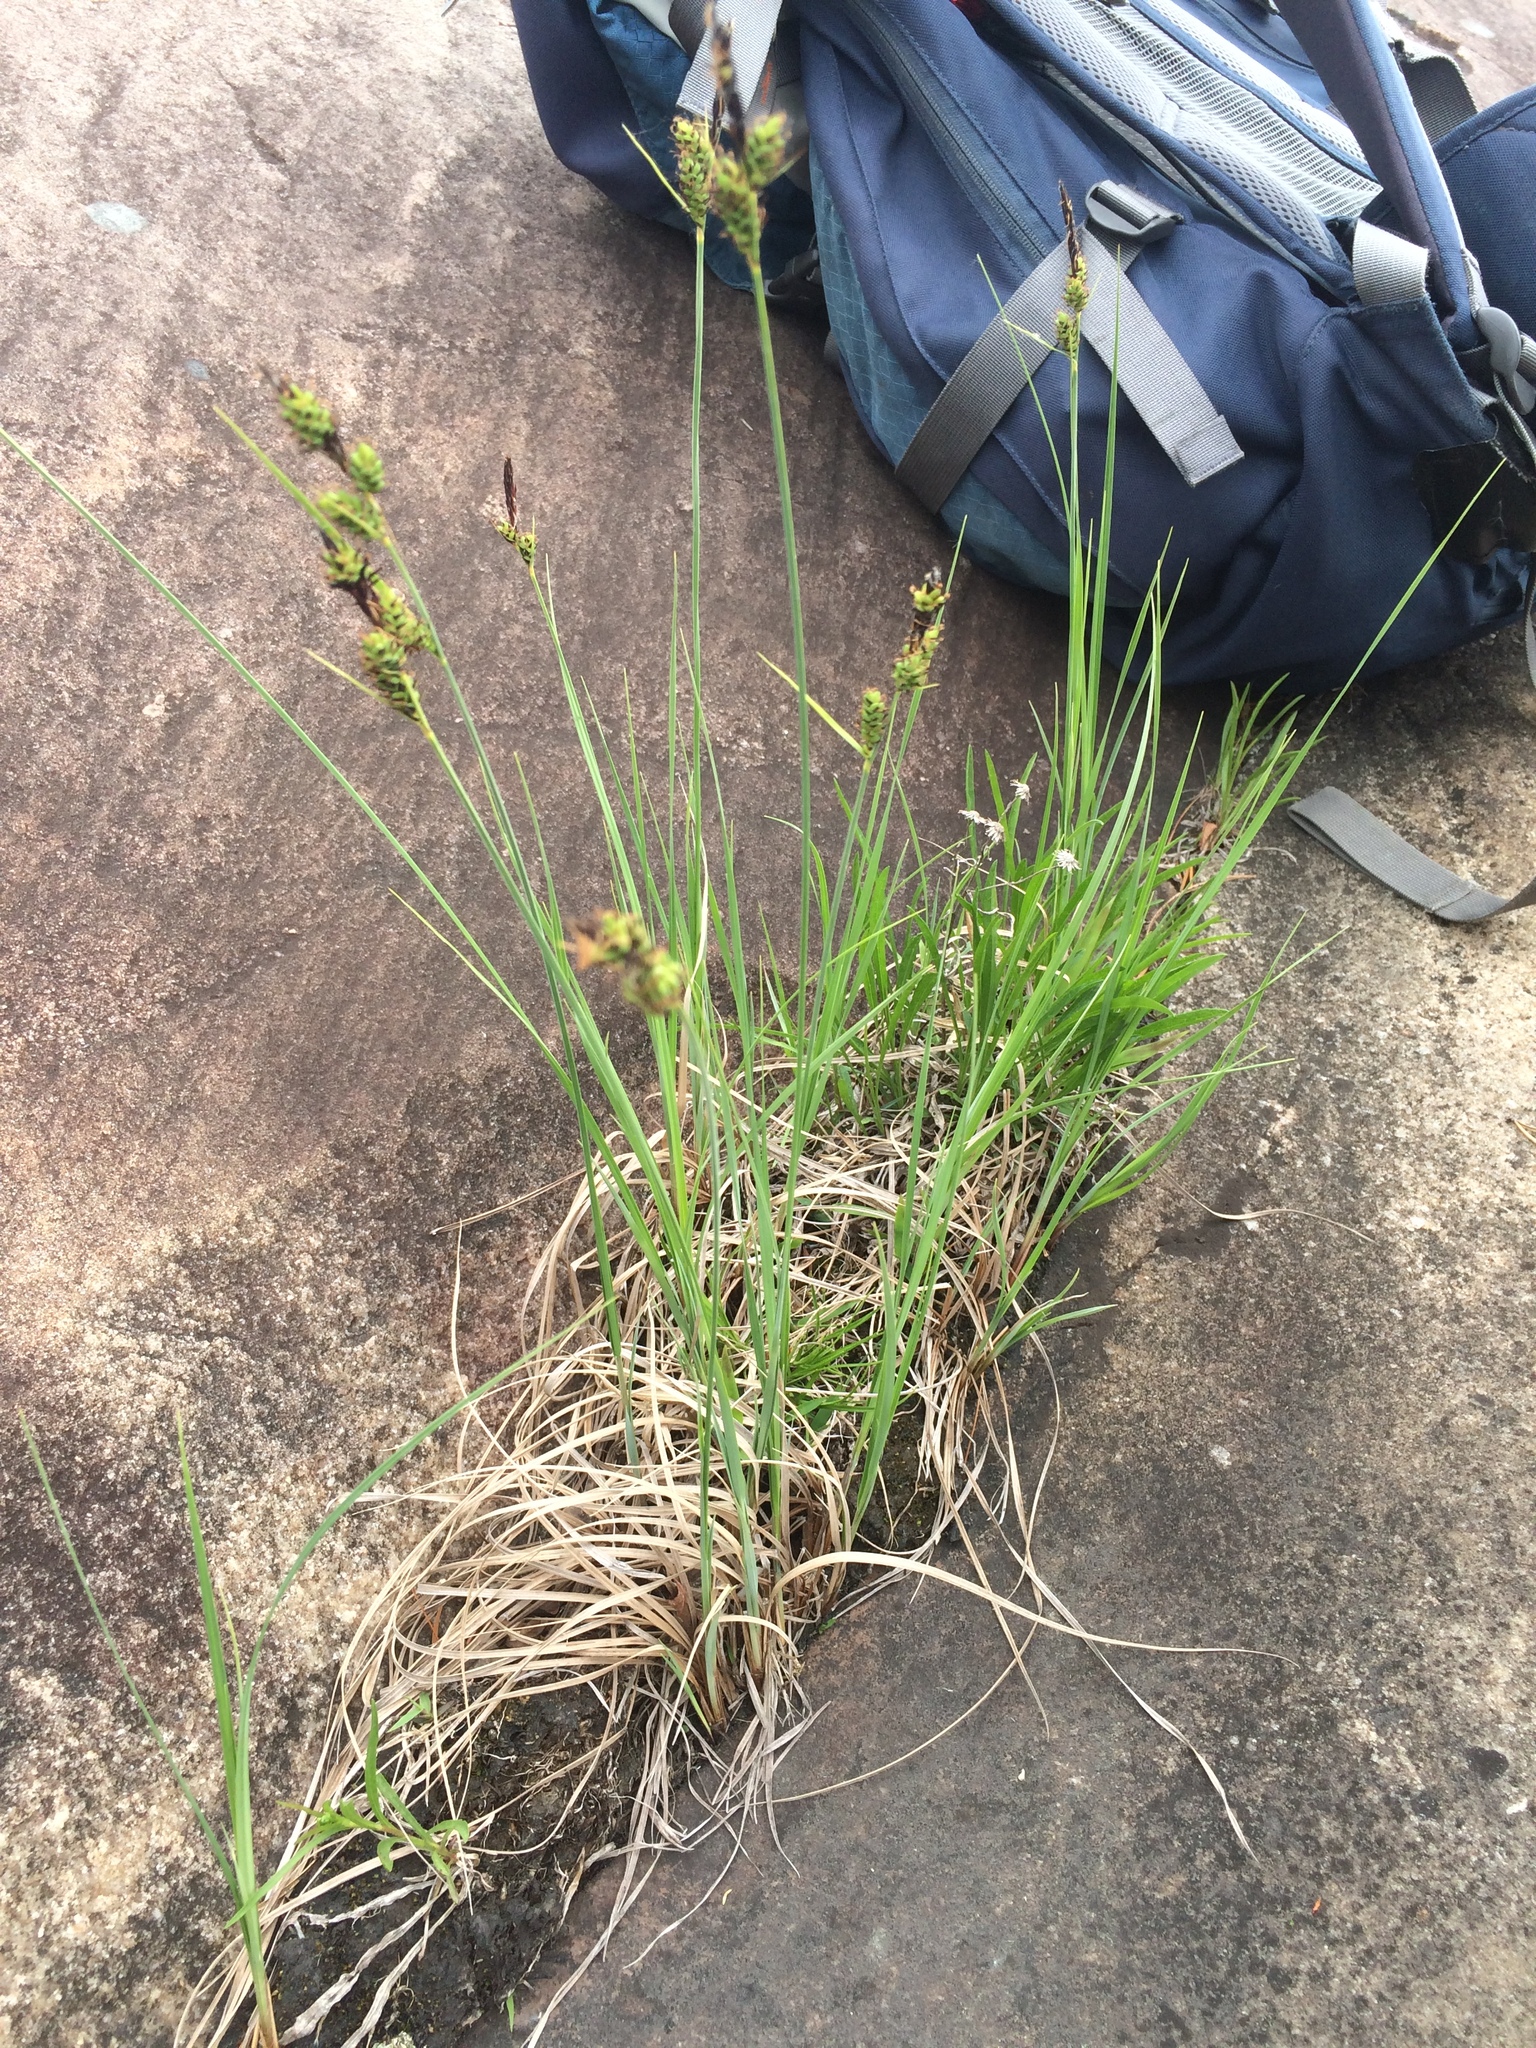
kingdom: Plantae
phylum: Tracheophyta
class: Liliopsida
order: Poales
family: Cyperaceae
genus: Carex
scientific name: Carex buxbaumii
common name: Club sedge
